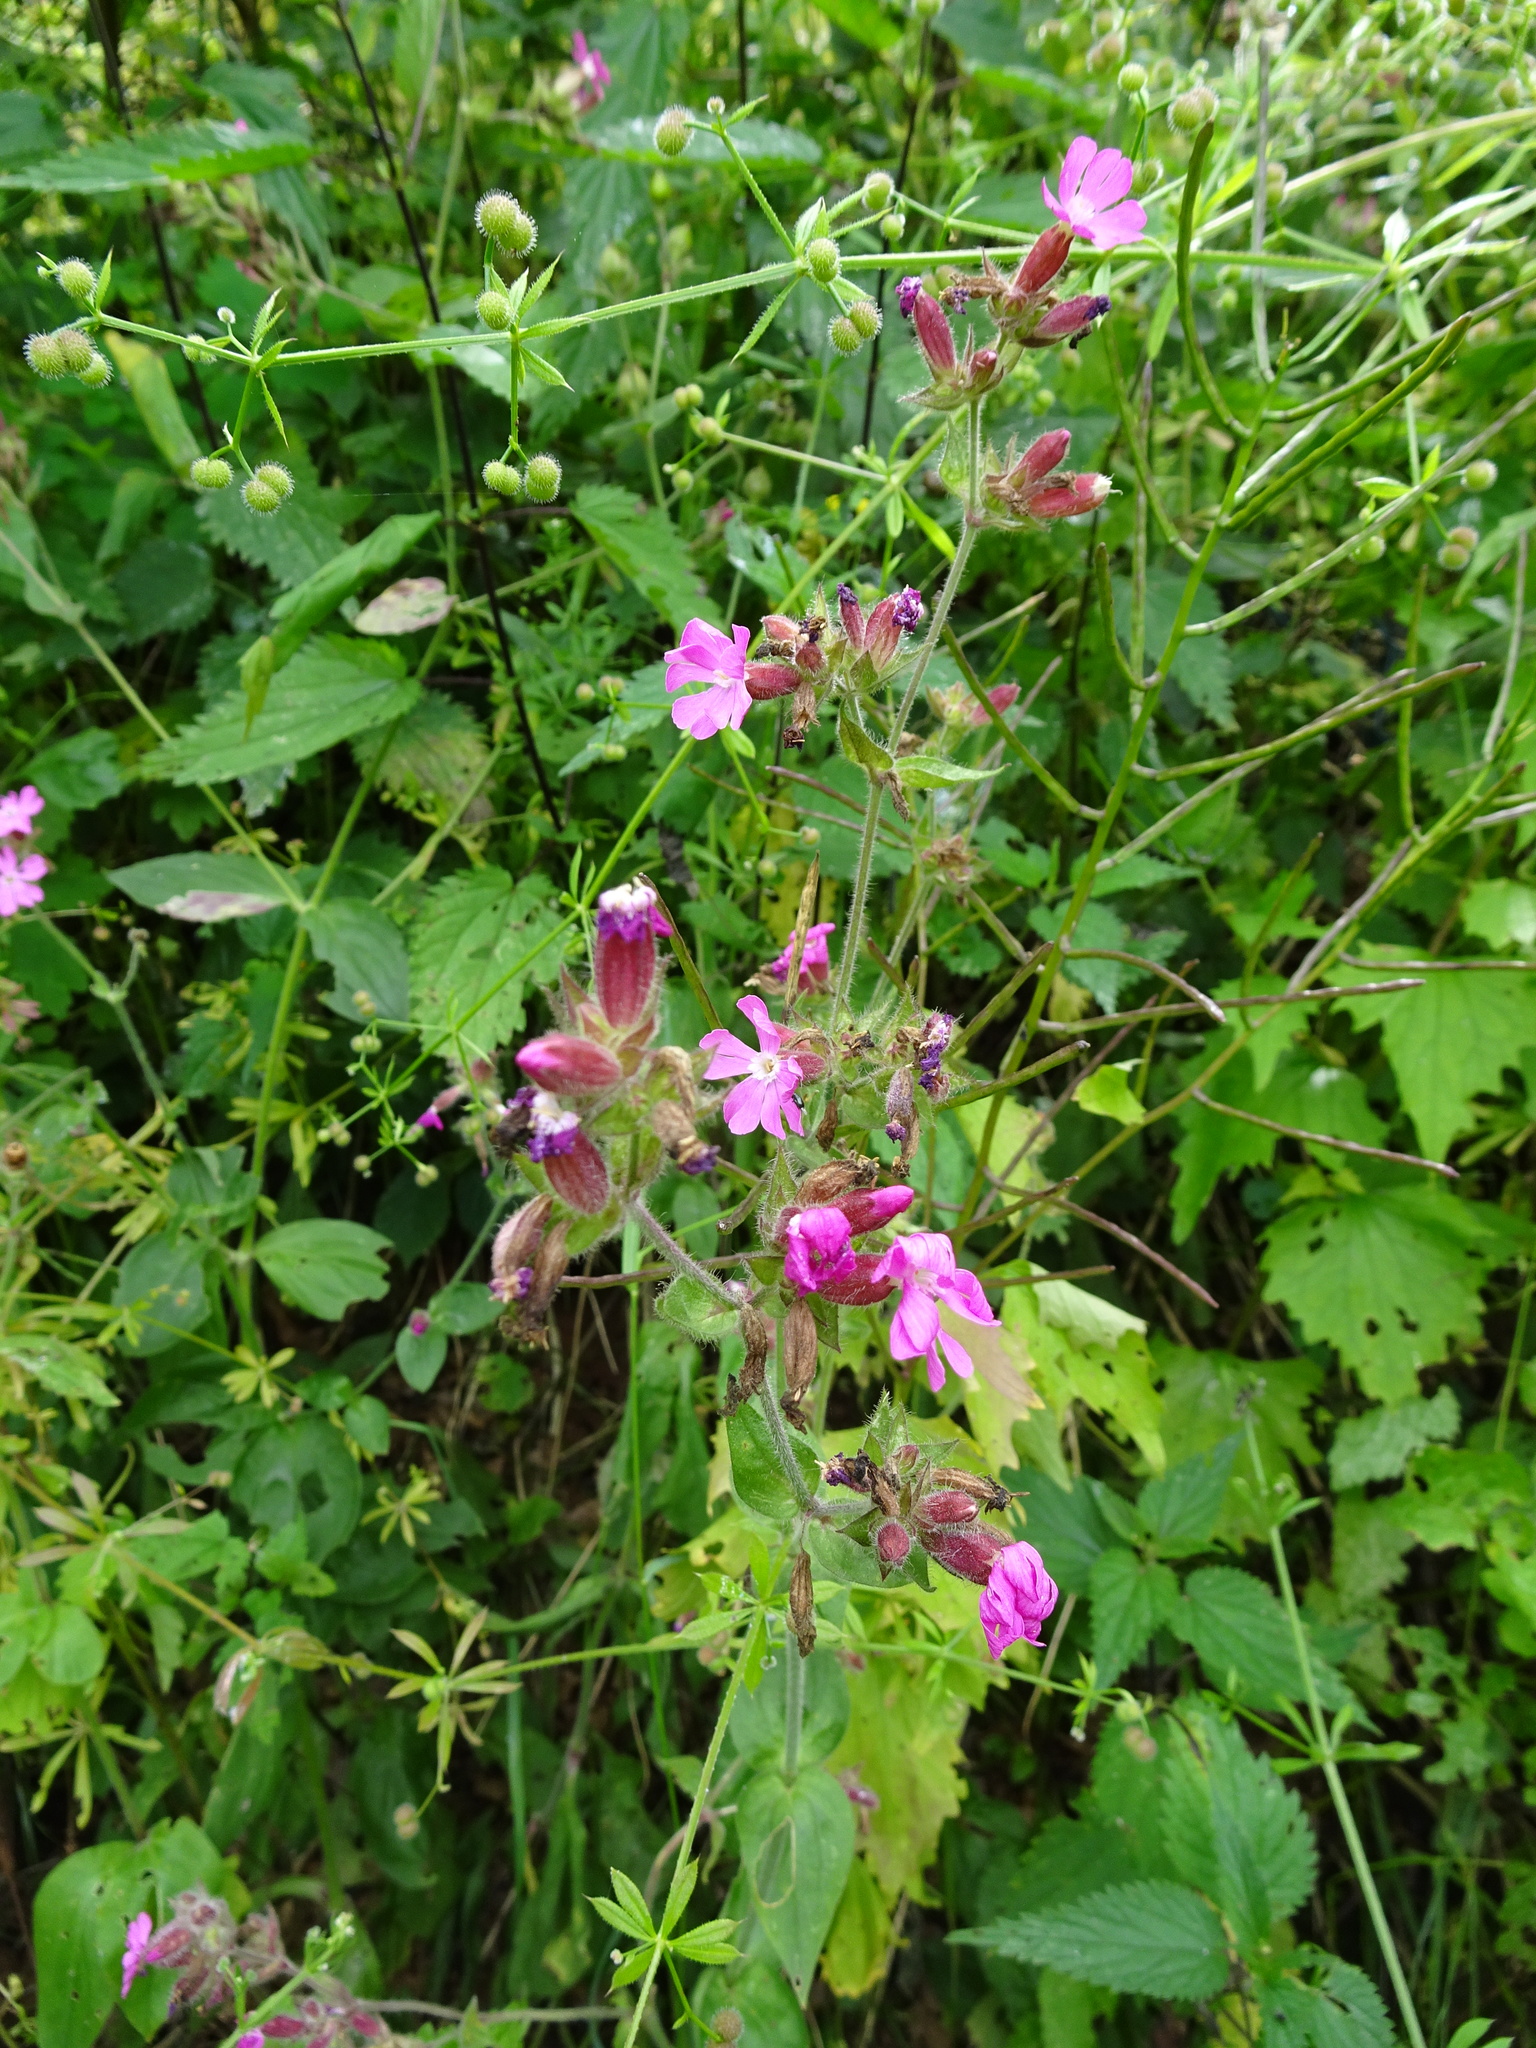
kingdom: Plantae
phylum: Tracheophyta
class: Magnoliopsida
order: Caryophyllales
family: Caryophyllaceae
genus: Silene
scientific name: Silene dioica
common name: Red campion
